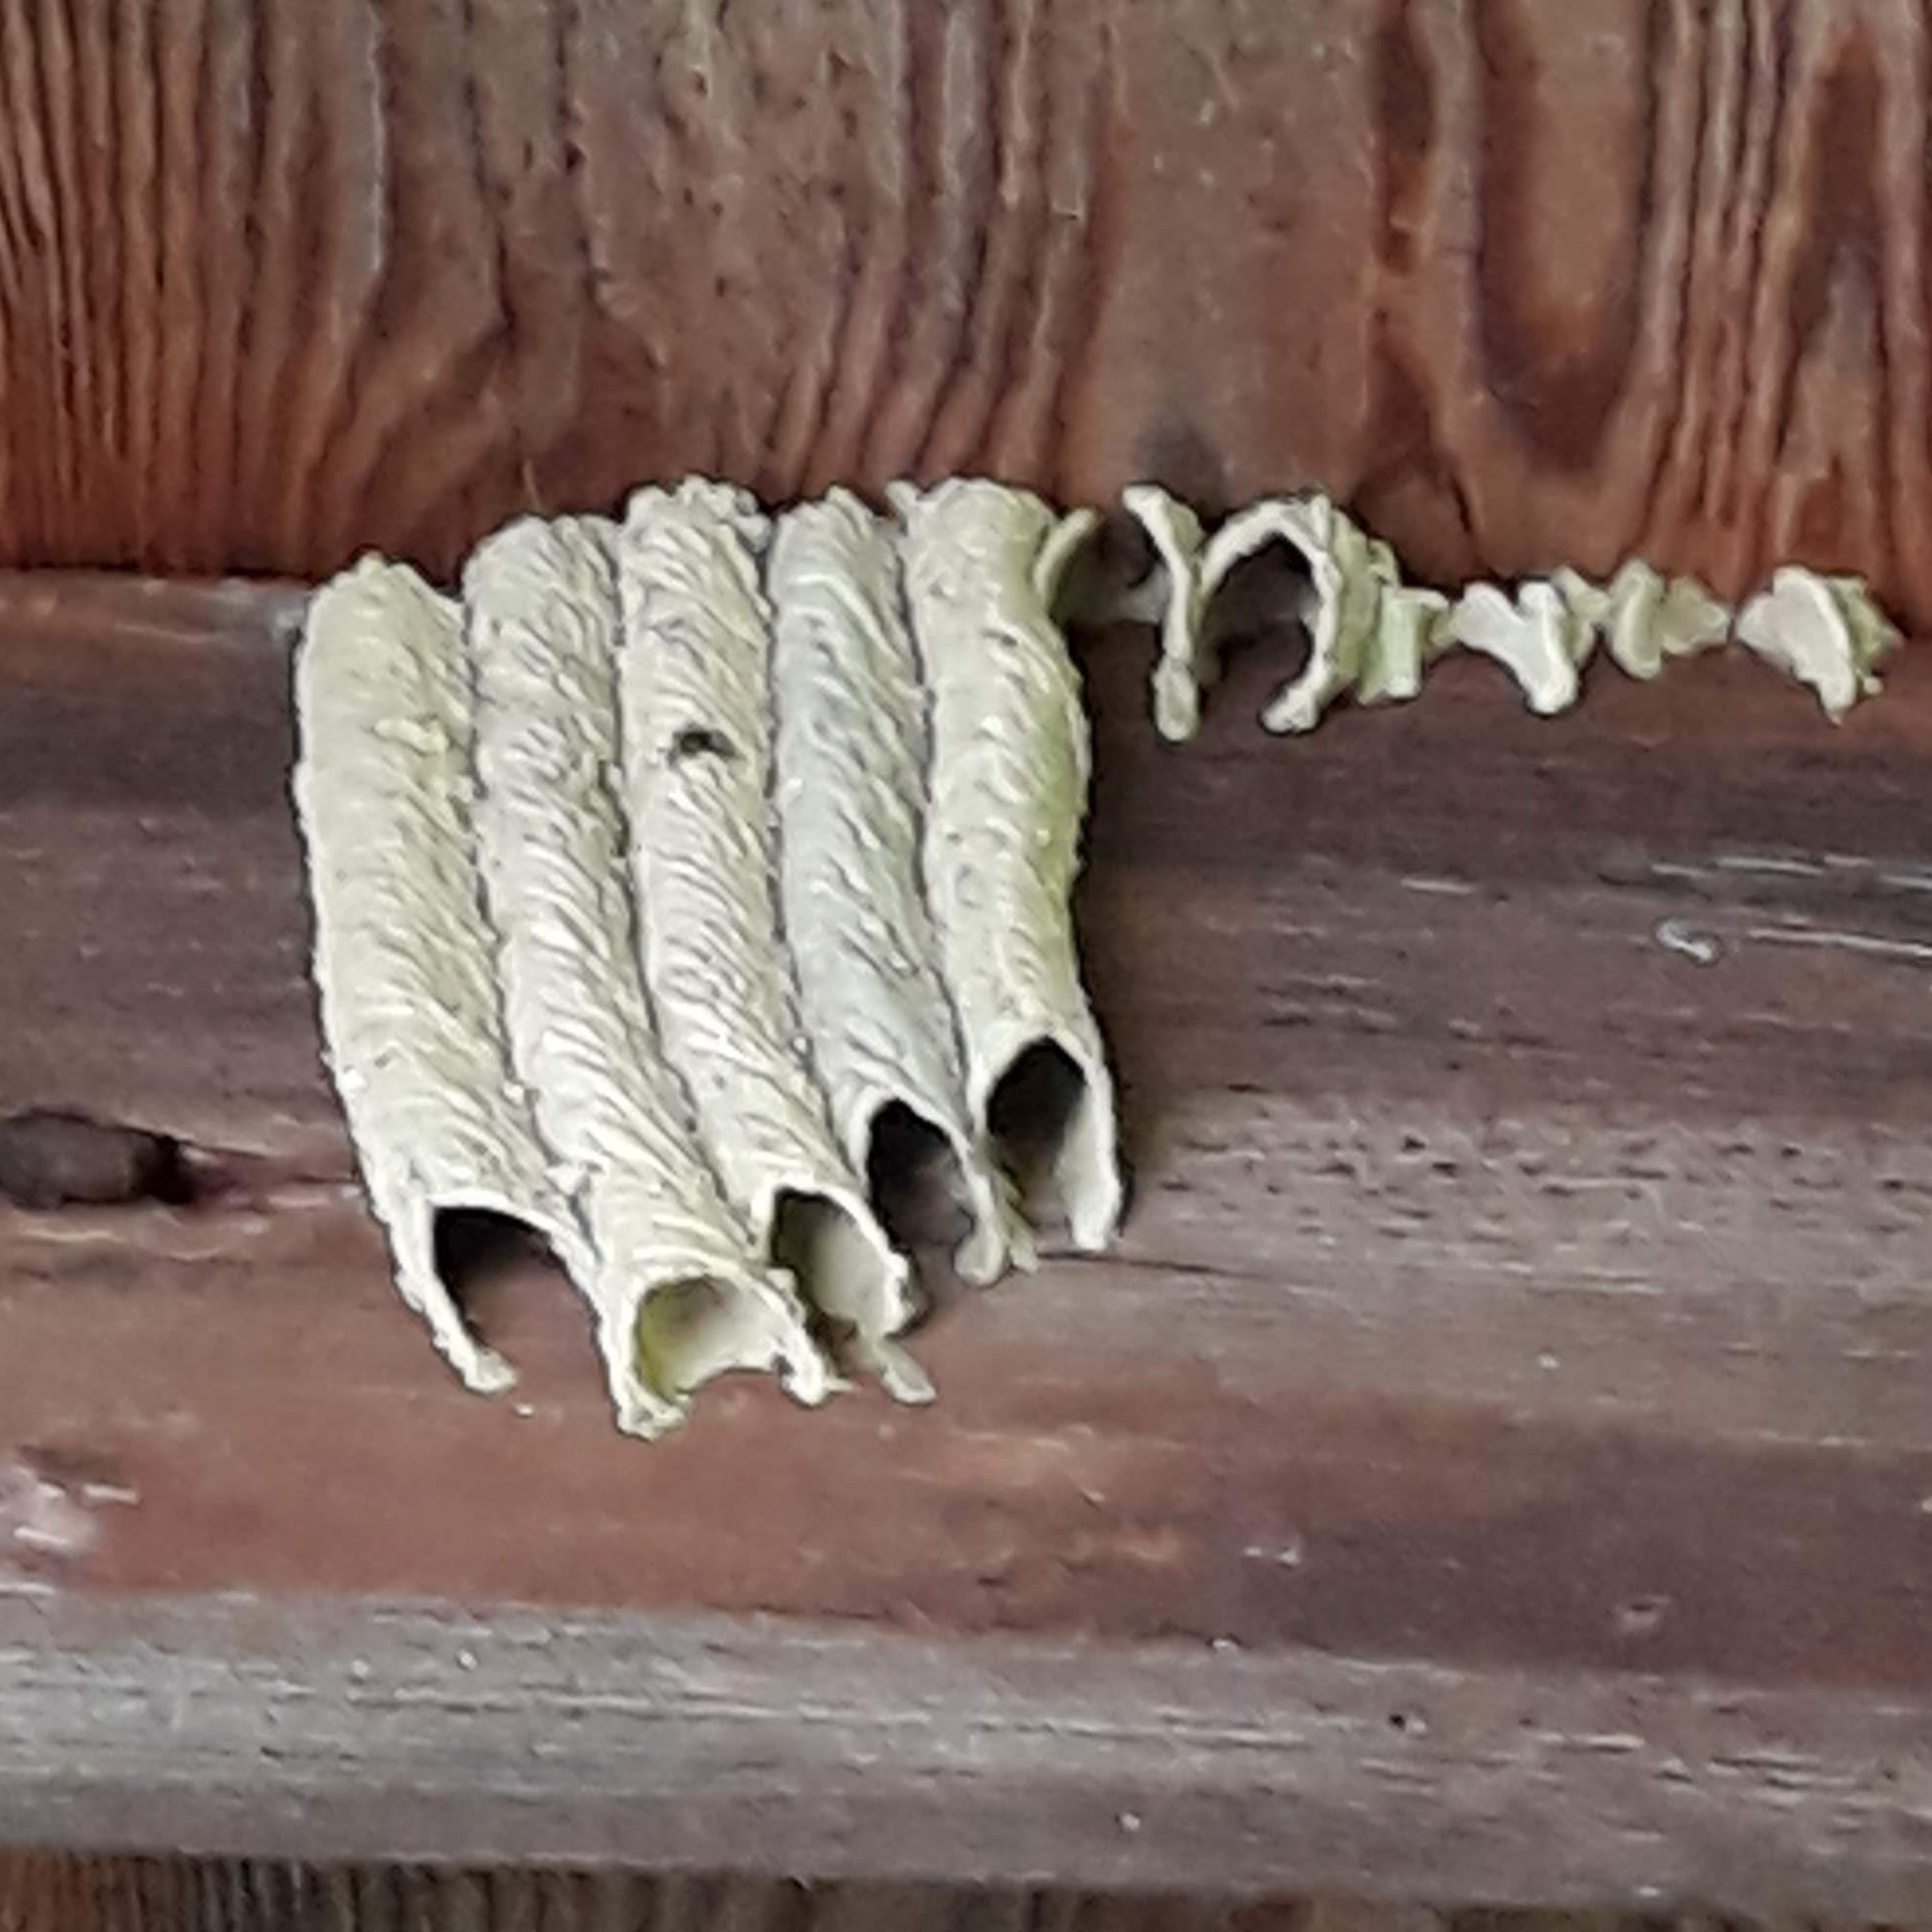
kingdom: Animalia
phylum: Arthropoda
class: Insecta
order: Hymenoptera
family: Crabronidae
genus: Trypoxylon
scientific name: Trypoxylon politum
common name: Organ-pipe mud-dauber wasp
